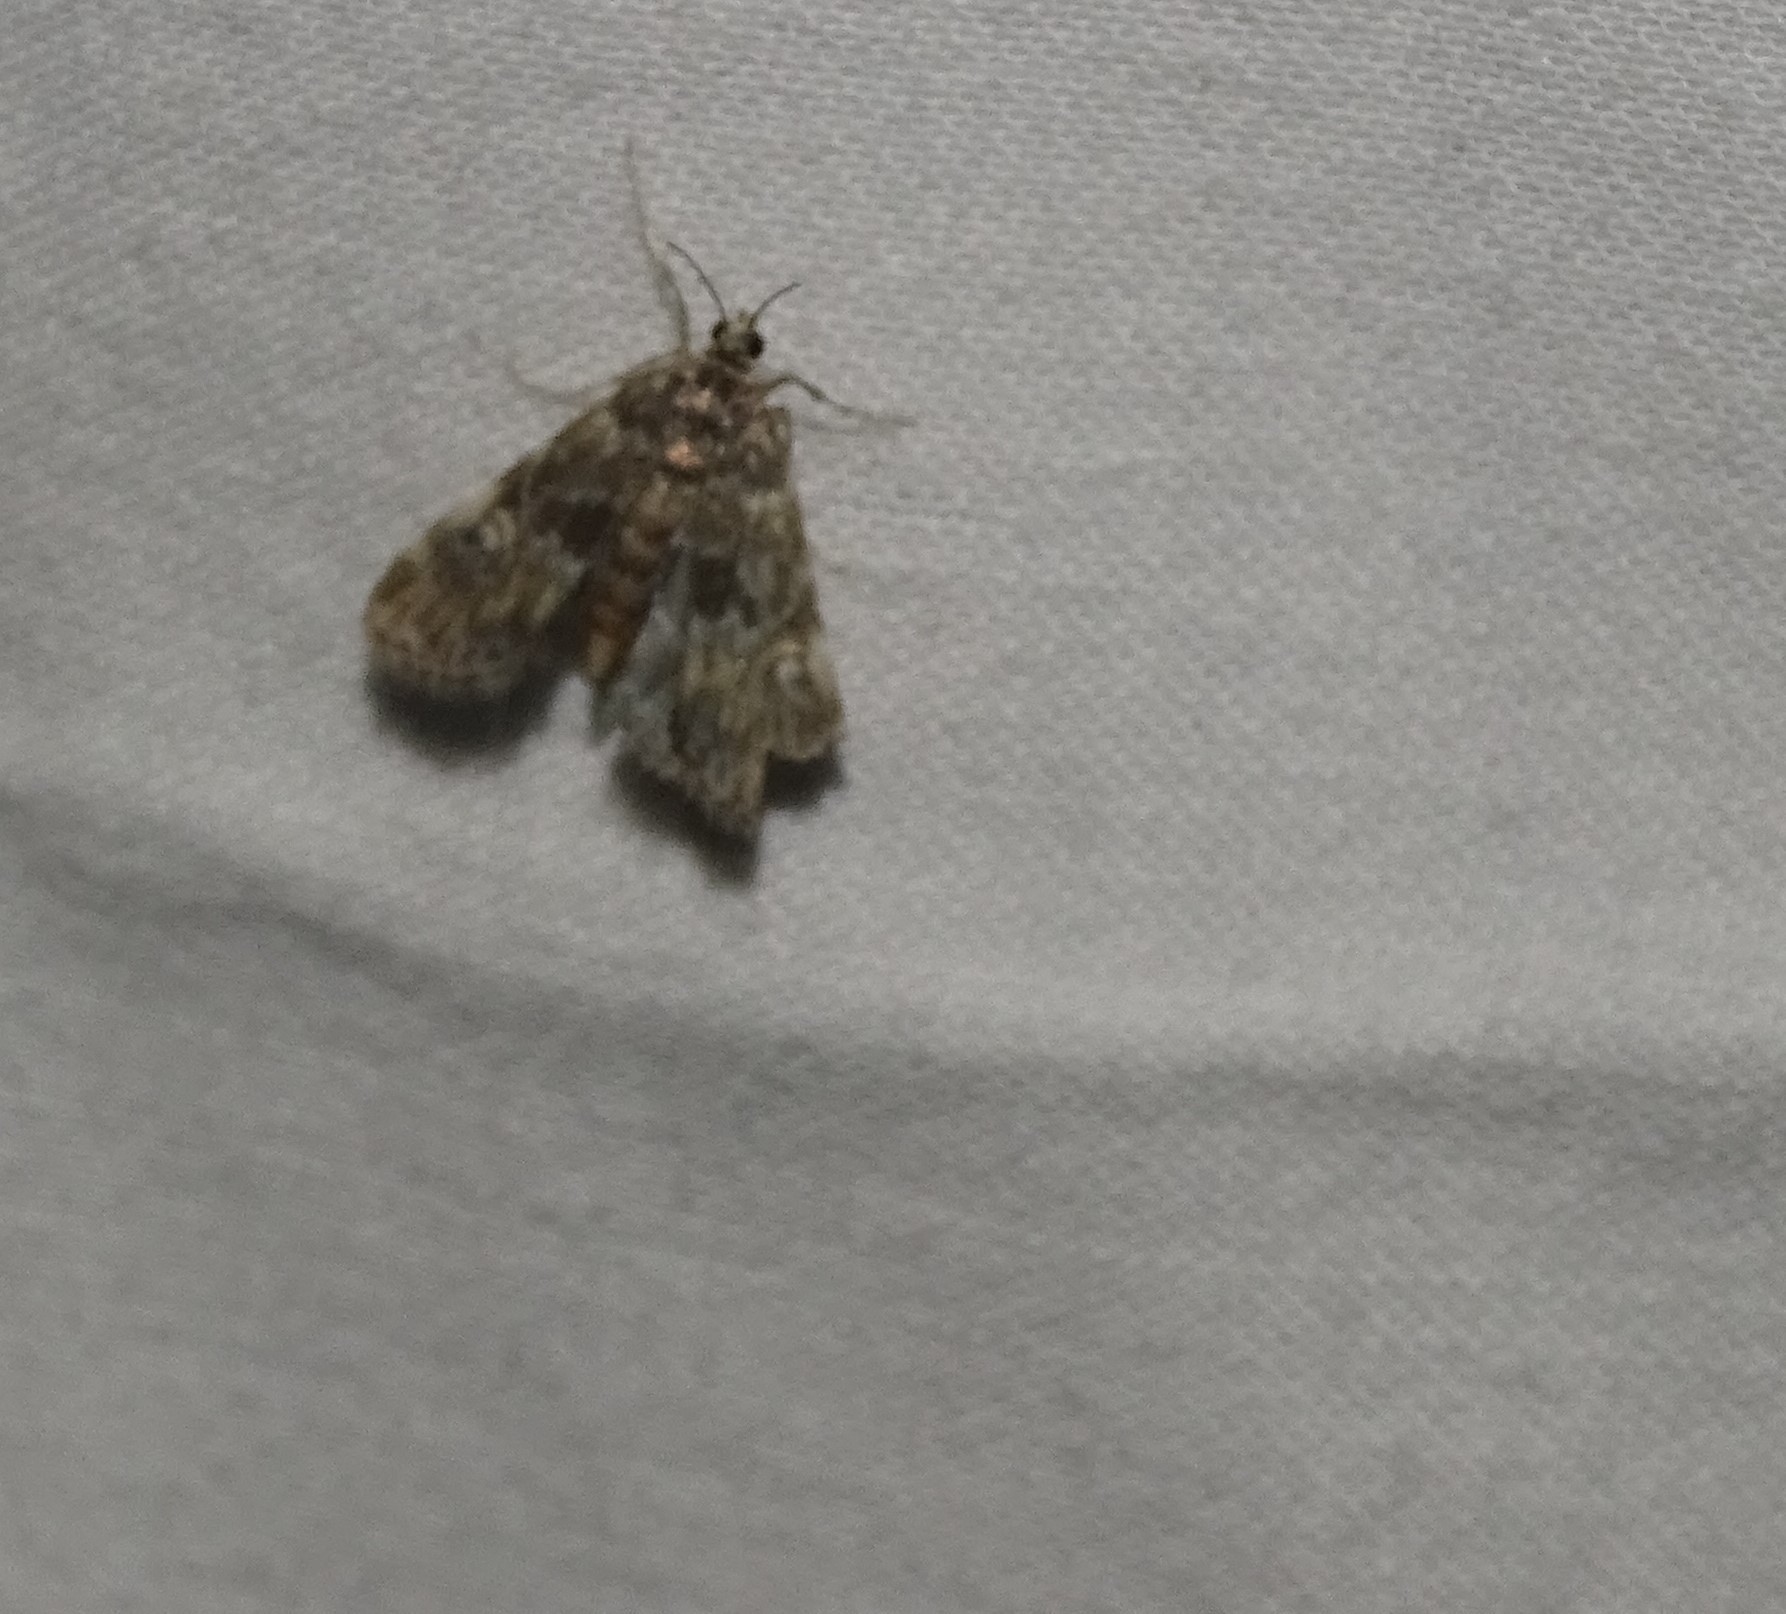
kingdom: Animalia
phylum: Arthropoda
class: Insecta
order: Lepidoptera
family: Crambidae
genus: Elophila
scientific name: Elophila obliteralis
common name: Waterlily leafcutter moth
